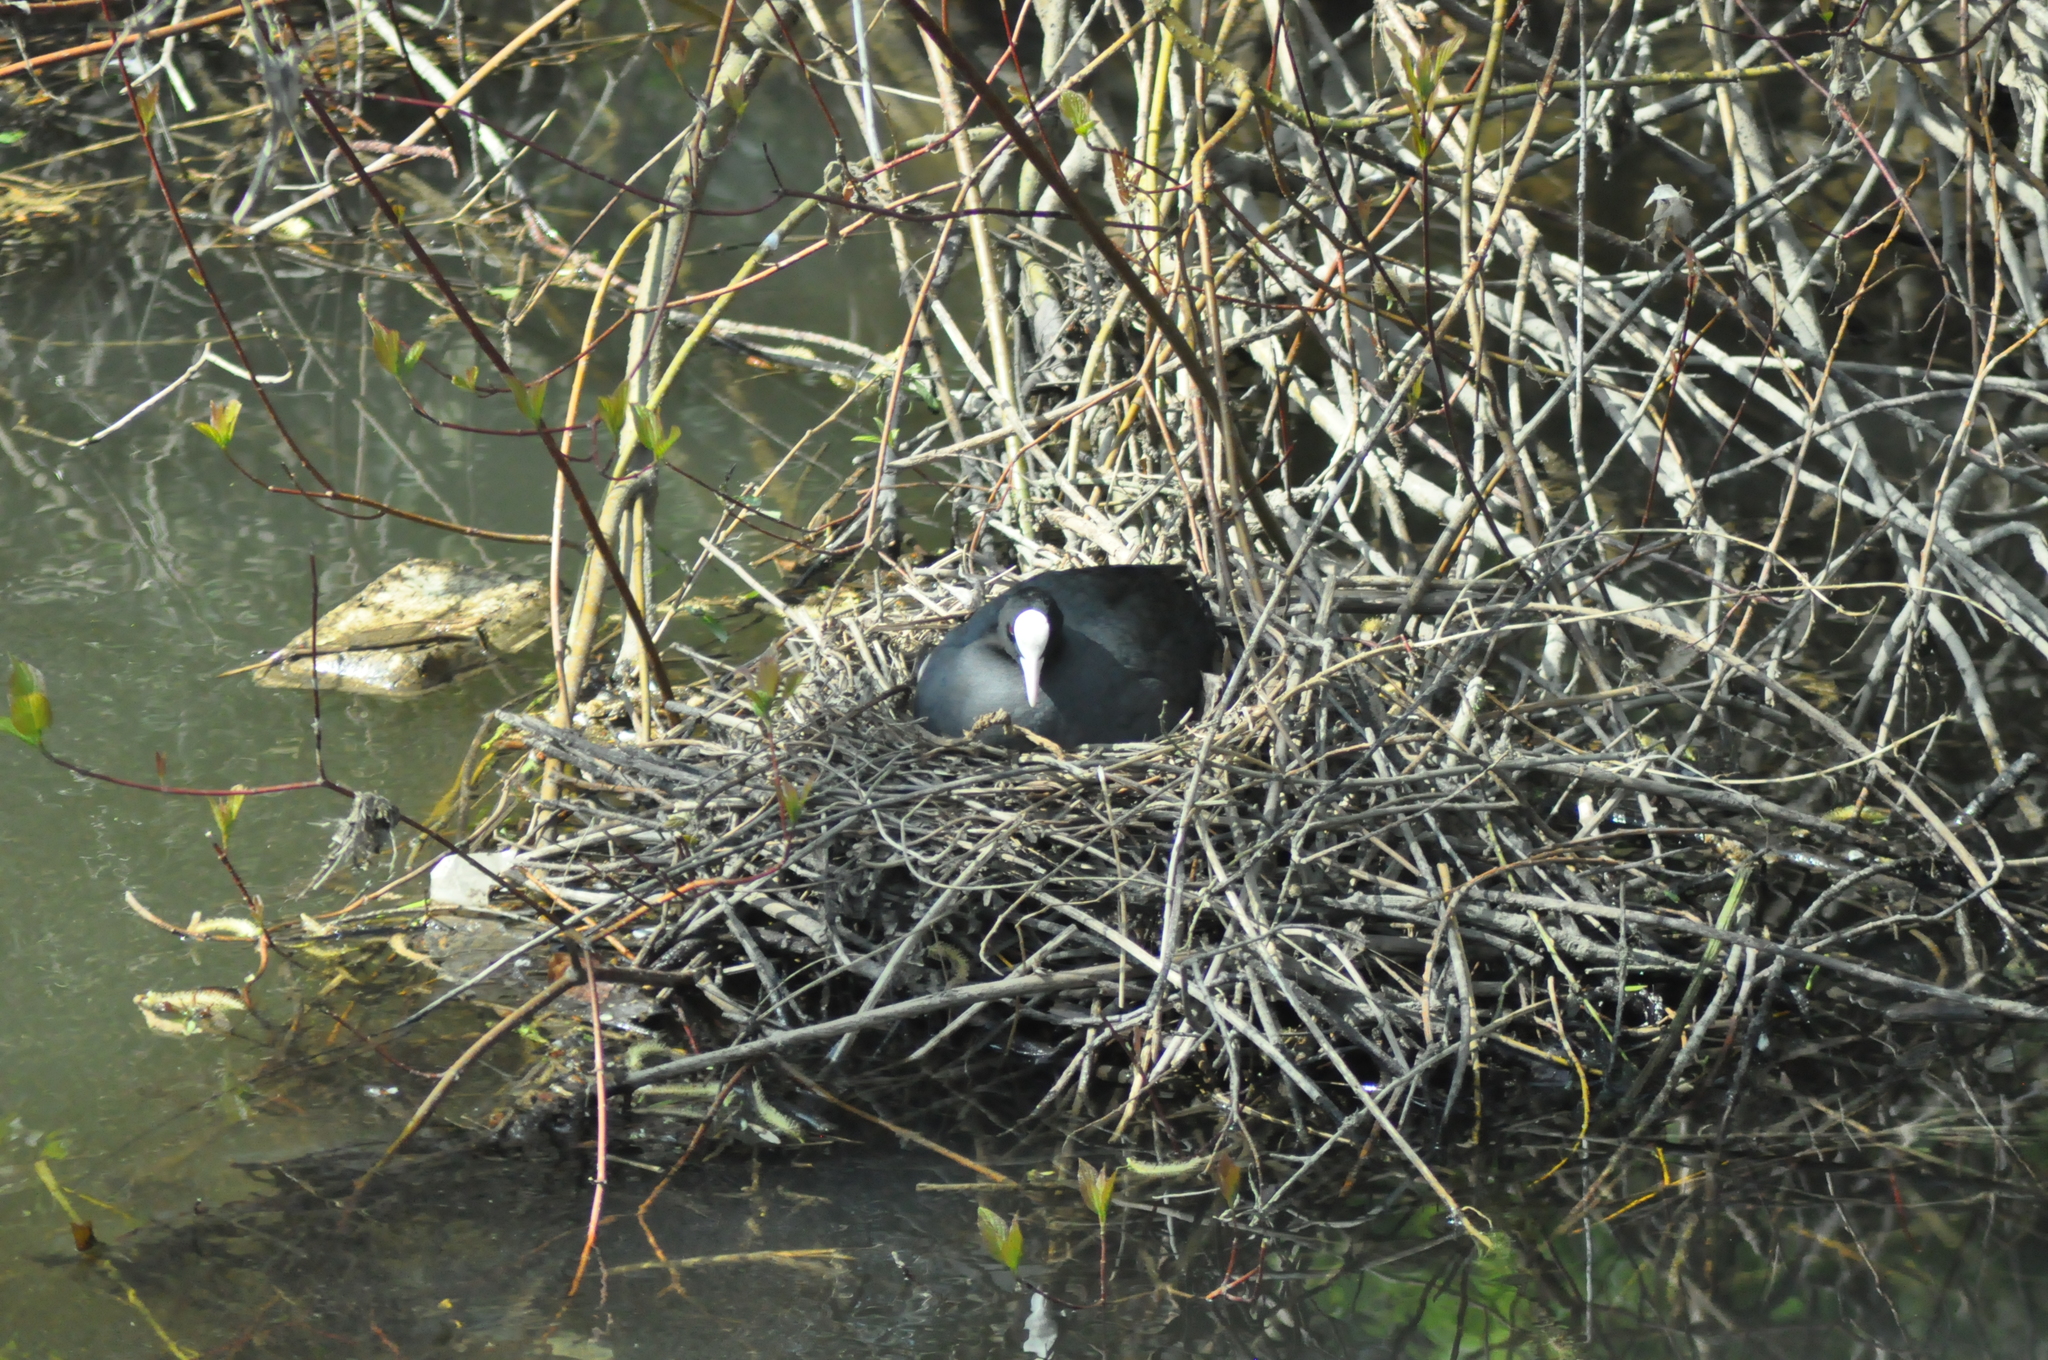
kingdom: Animalia
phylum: Chordata
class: Aves
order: Gruiformes
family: Rallidae
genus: Fulica
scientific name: Fulica atra
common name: Eurasian coot
